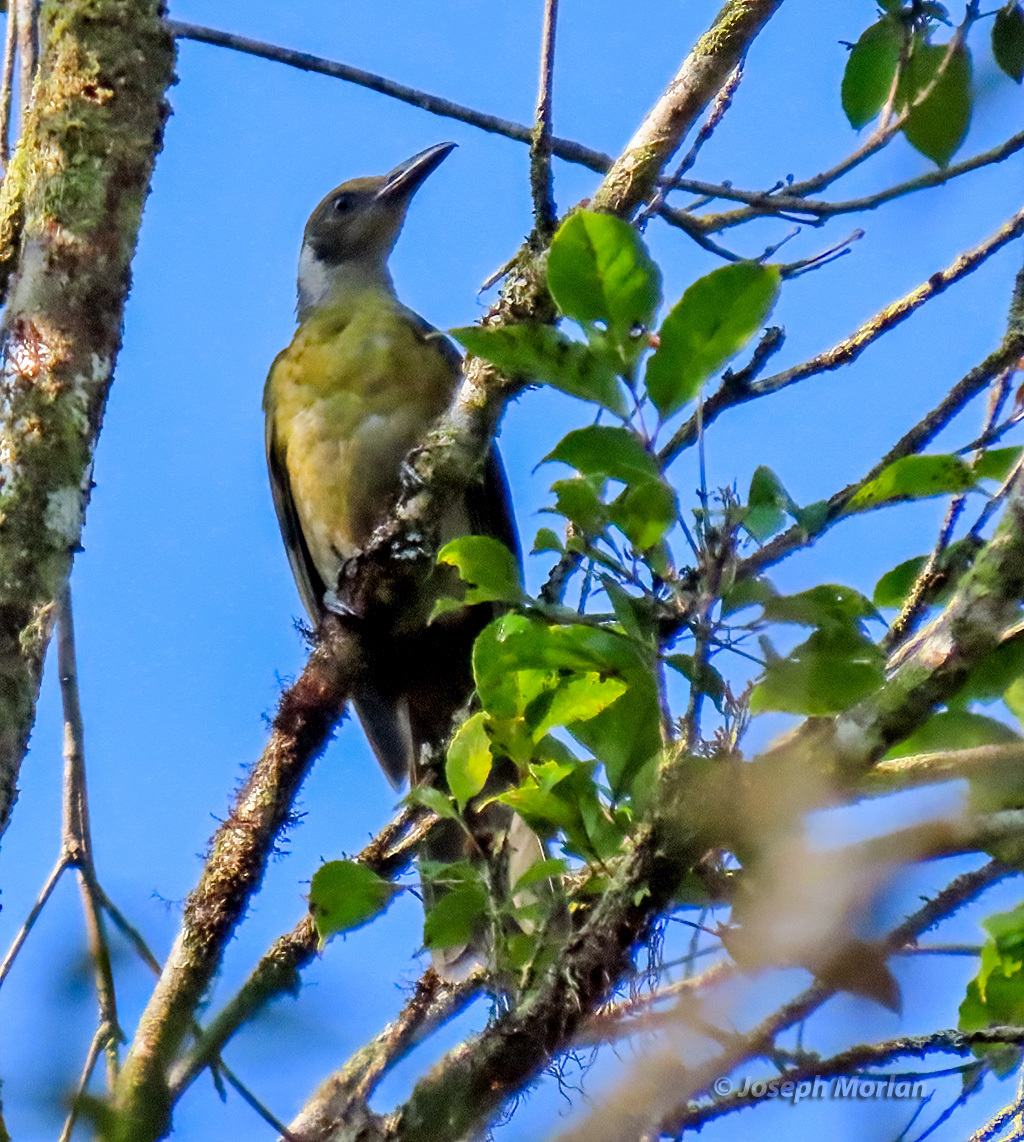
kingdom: Animalia
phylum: Chordata
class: Aves
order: Passeriformes
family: Oriolidae
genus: Oriolus
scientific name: Oriolus forsteni
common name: Grey-collared oriole
